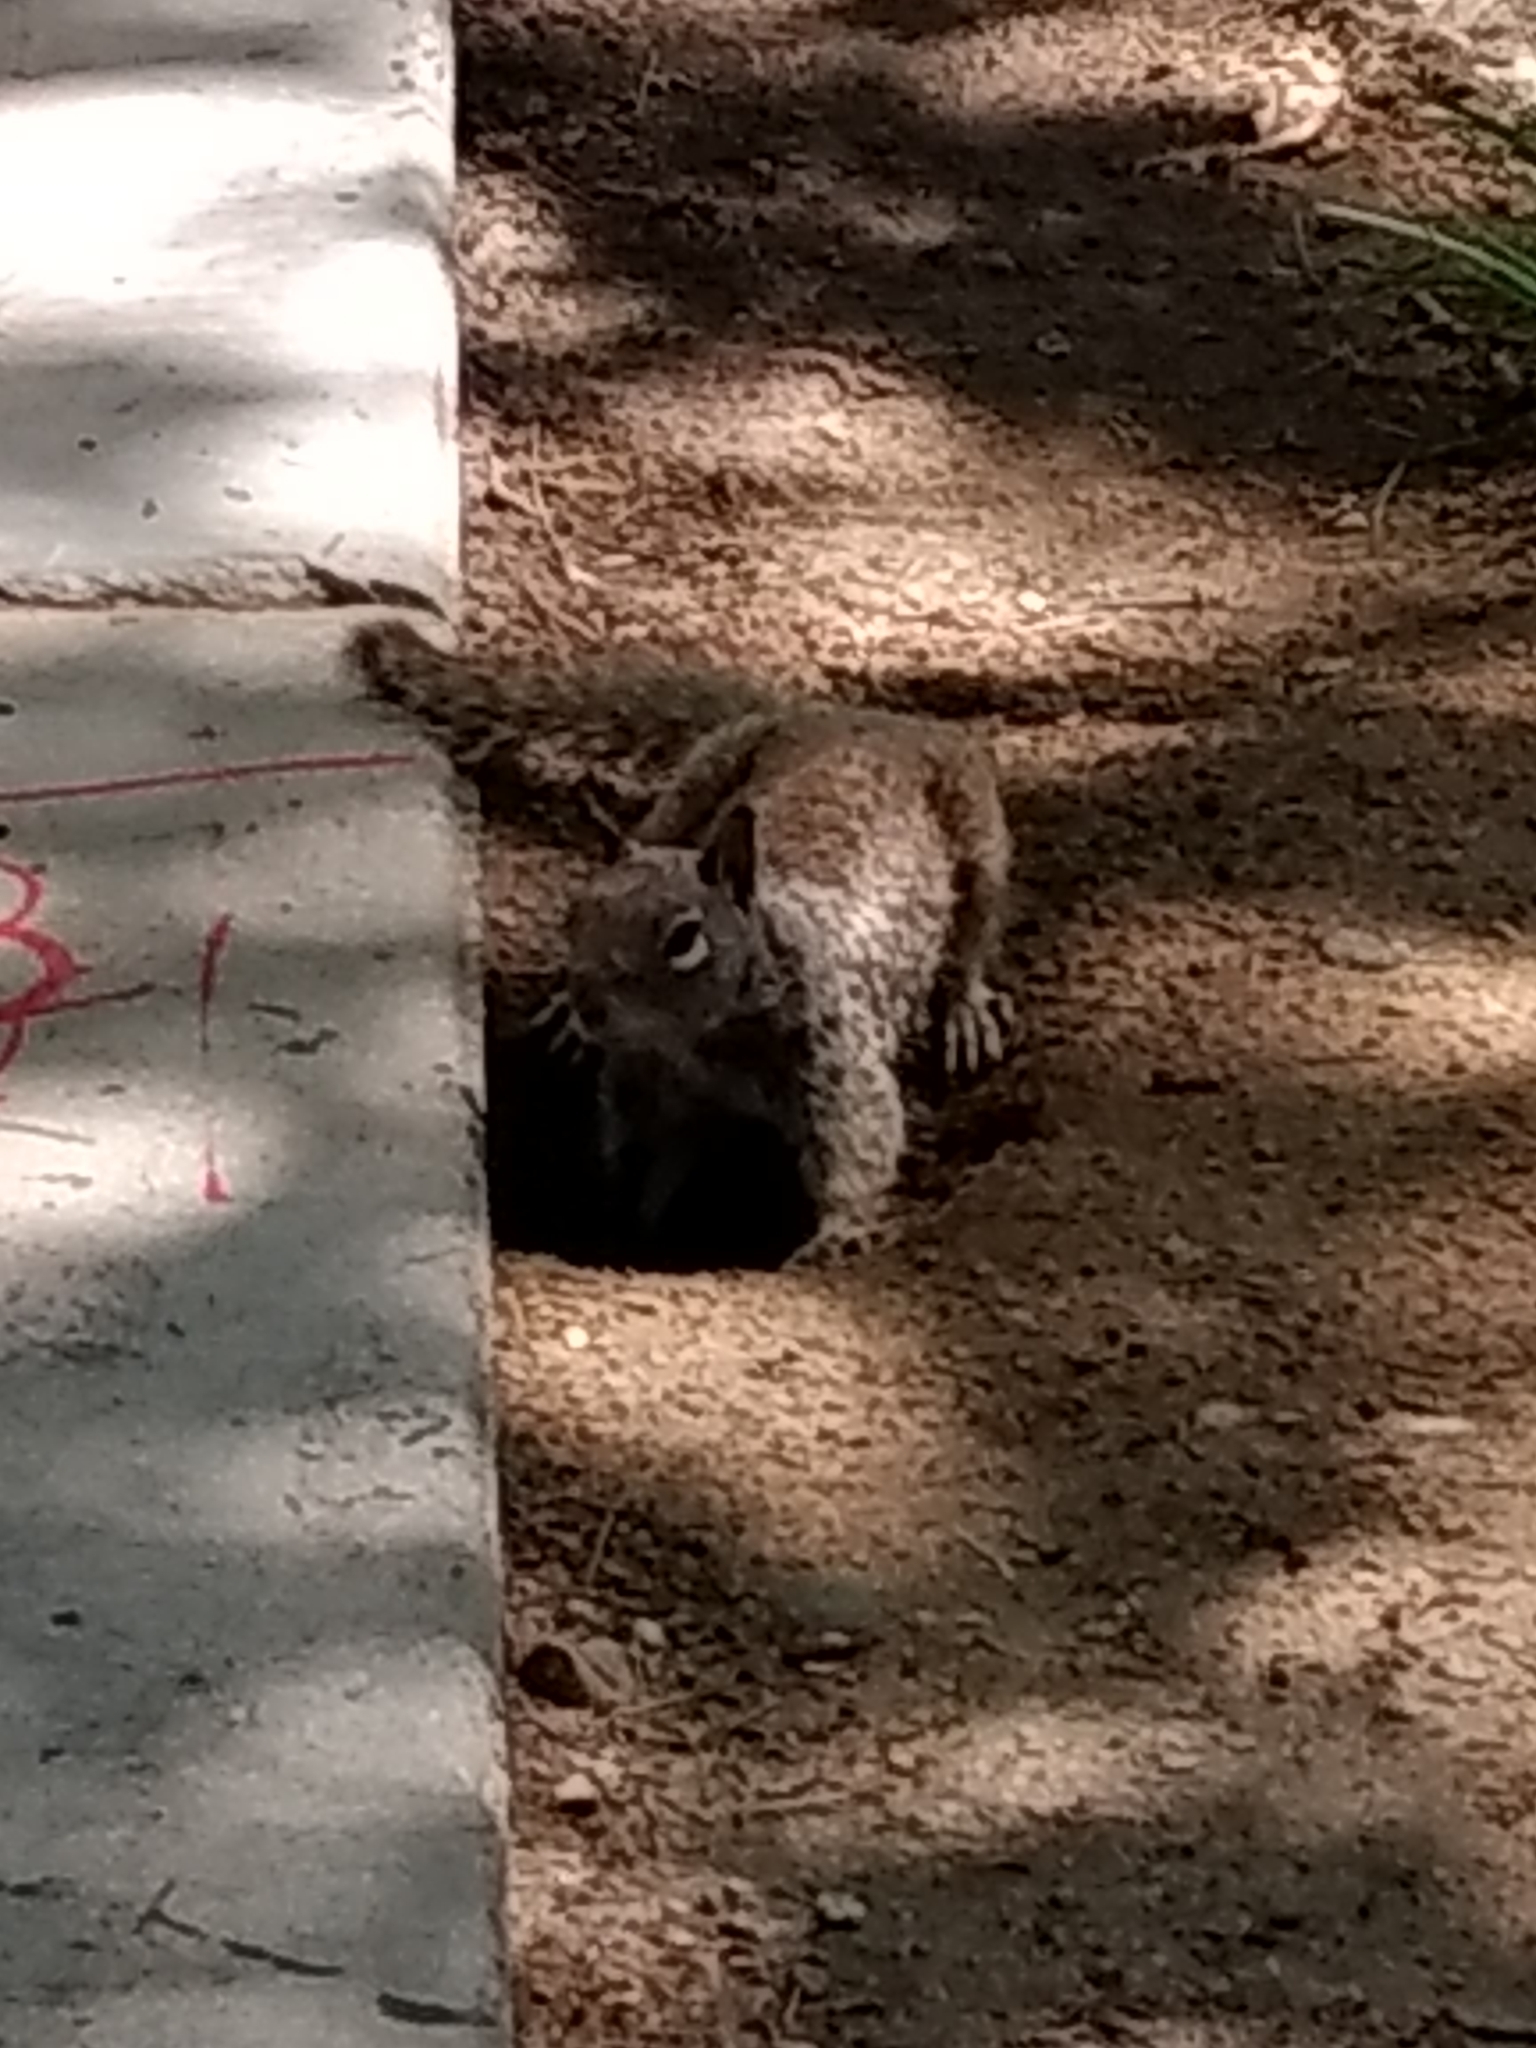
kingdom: Animalia
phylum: Chordata
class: Mammalia
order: Rodentia
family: Sciuridae
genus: Otospermophilus
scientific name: Otospermophilus beecheyi
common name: California ground squirrel
